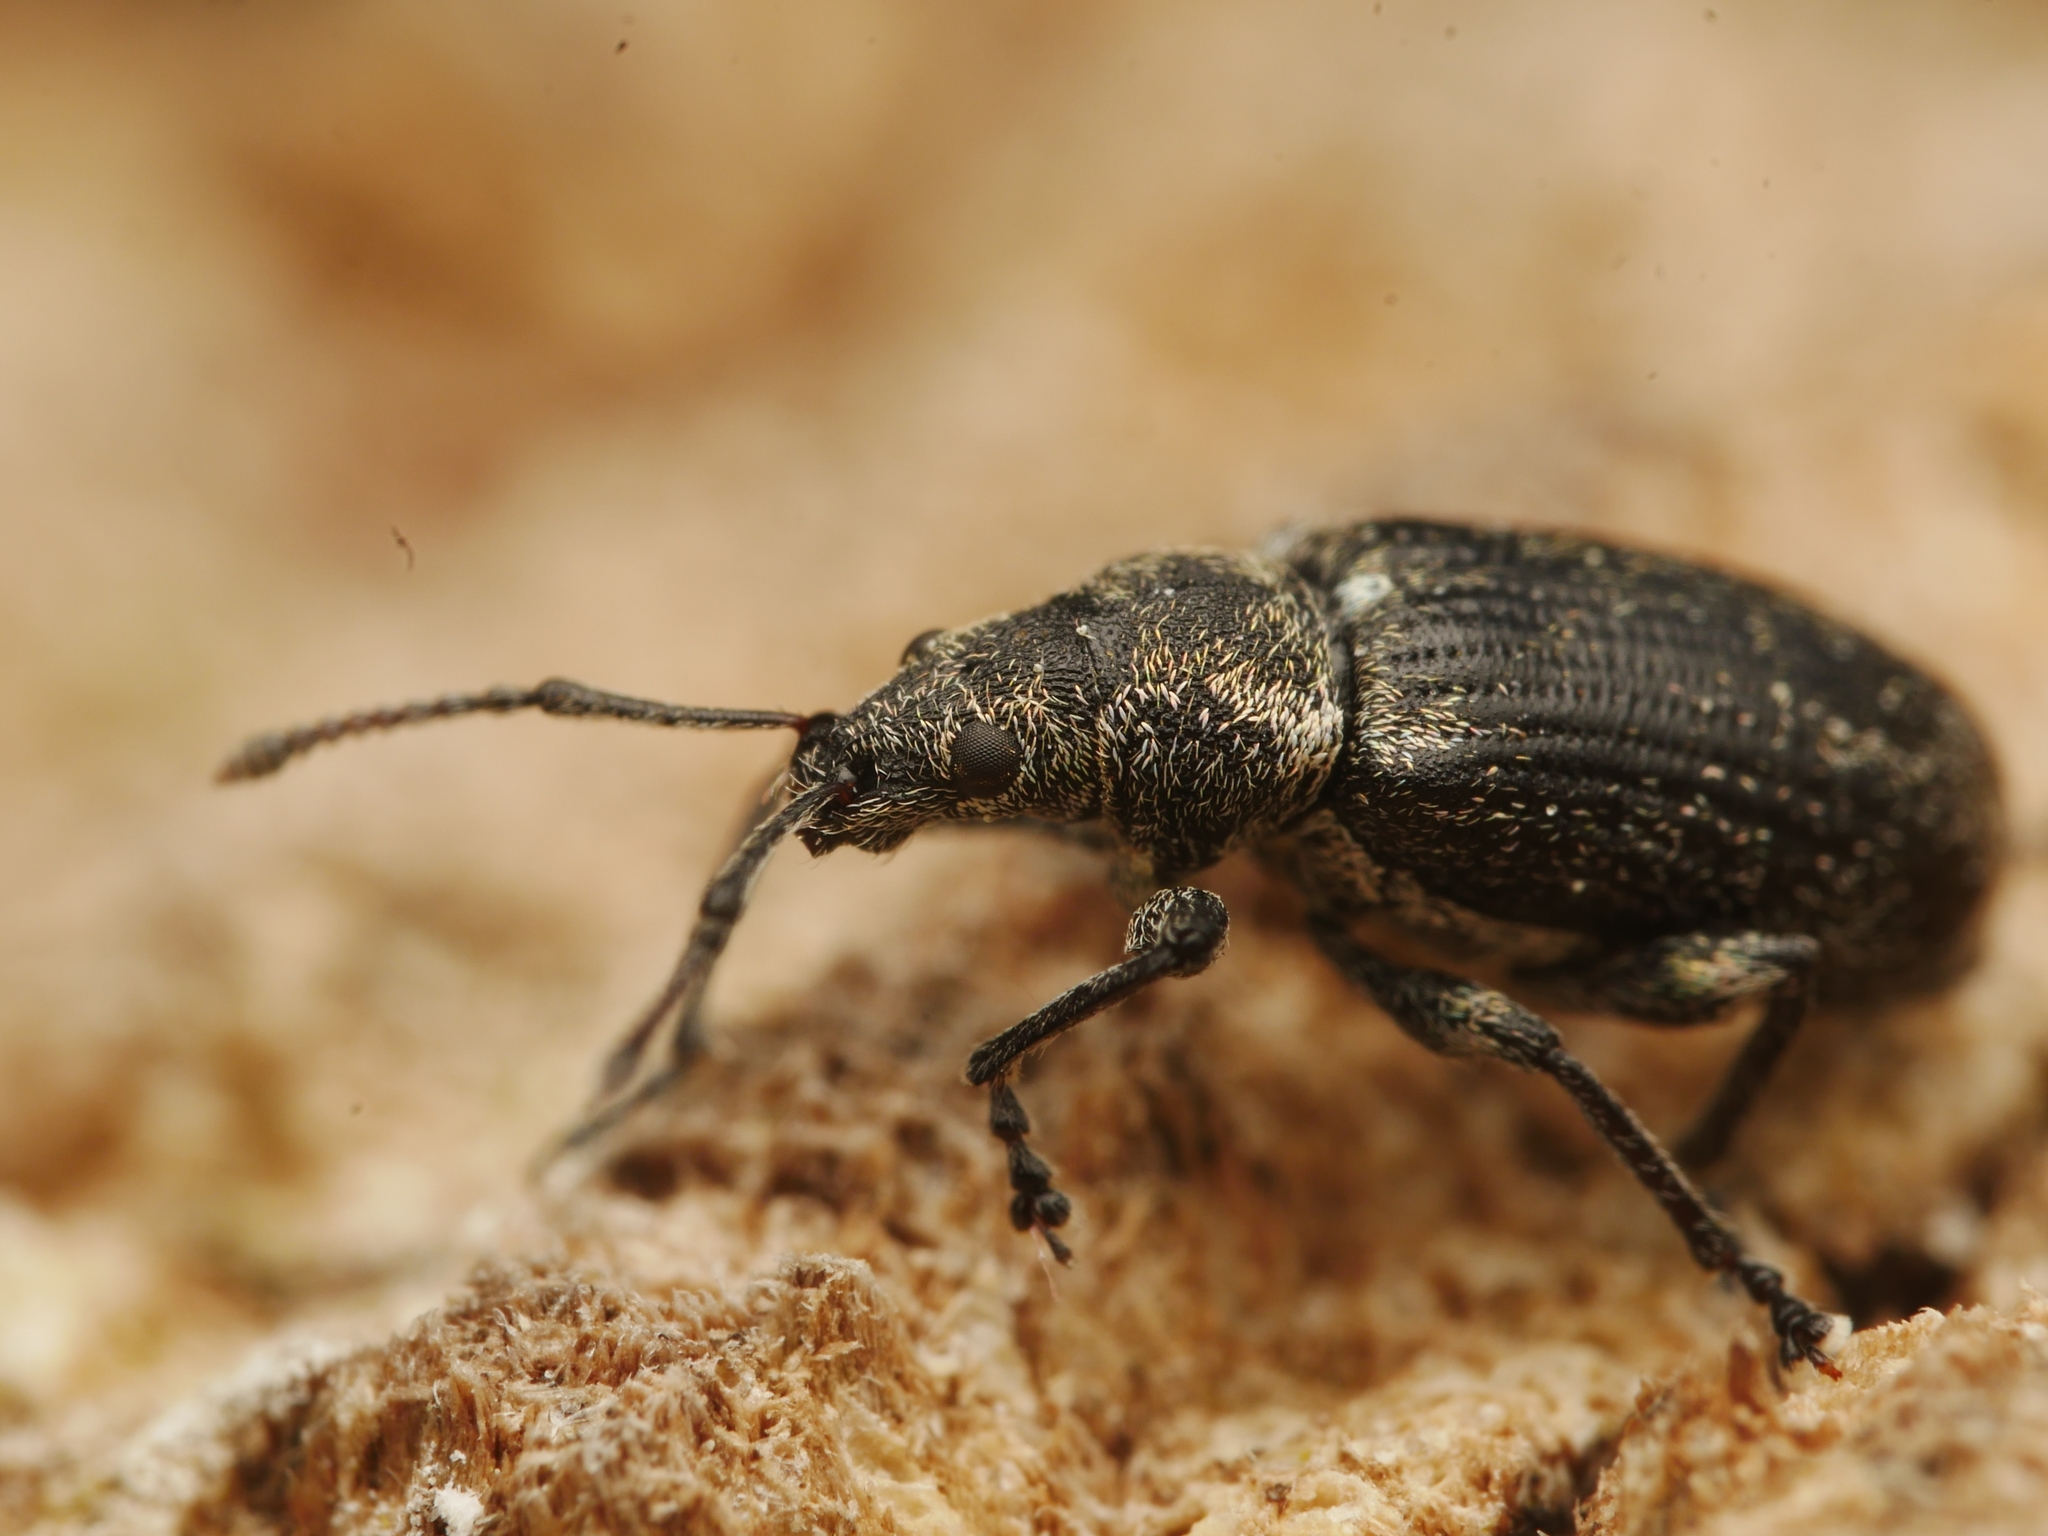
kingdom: Animalia
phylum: Arthropoda
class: Insecta
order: Coleoptera
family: Curculionidae
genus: Phyllobius
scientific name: Phyllobius pyri
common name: Common leaf weevil
